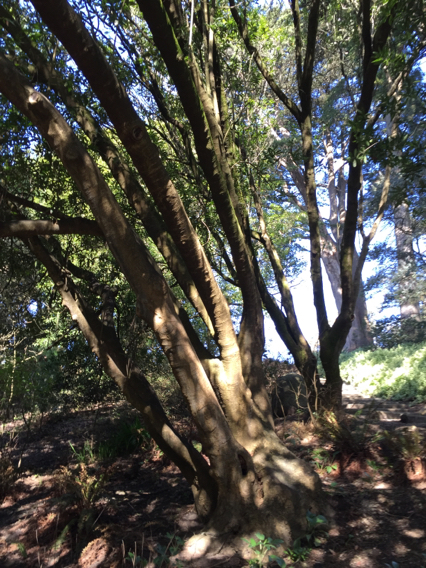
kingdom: Plantae
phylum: Tracheophyta
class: Magnoliopsida
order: Laurales
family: Lauraceae
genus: Umbellularia
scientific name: Umbellularia californica
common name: California bay
